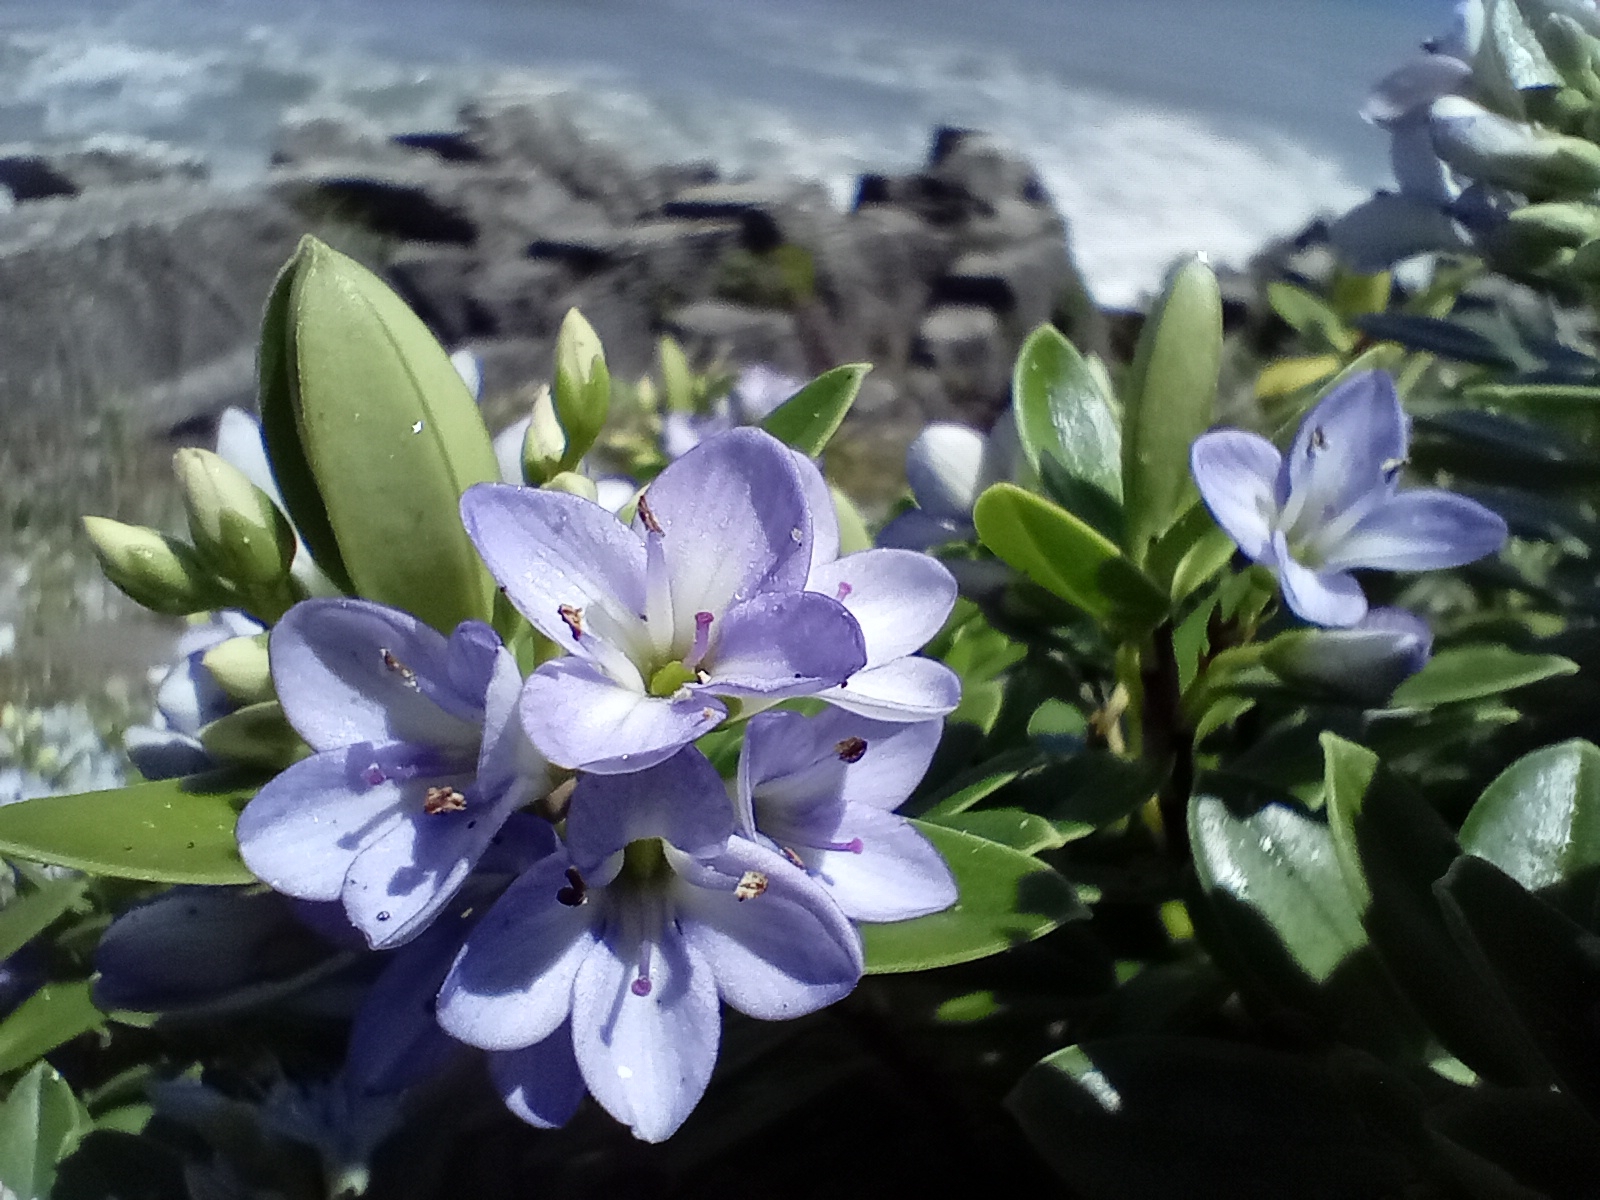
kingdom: Plantae
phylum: Tracheophyta
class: Magnoliopsida
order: Lamiales
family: Plantaginaceae
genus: Veronica
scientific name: Veronica elliptica
